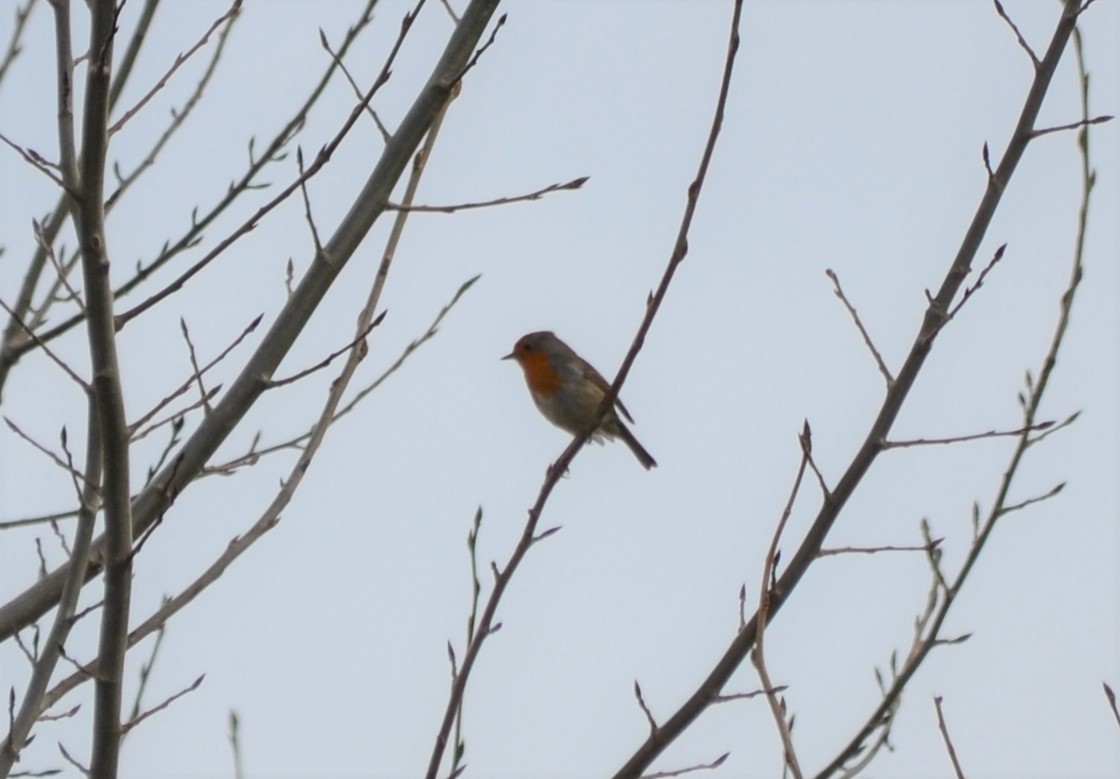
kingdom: Animalia
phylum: Chordata
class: Aves
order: Passeriformes
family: Muscicapidae
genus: Erithacus
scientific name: Erithacus rubecula
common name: European robin
